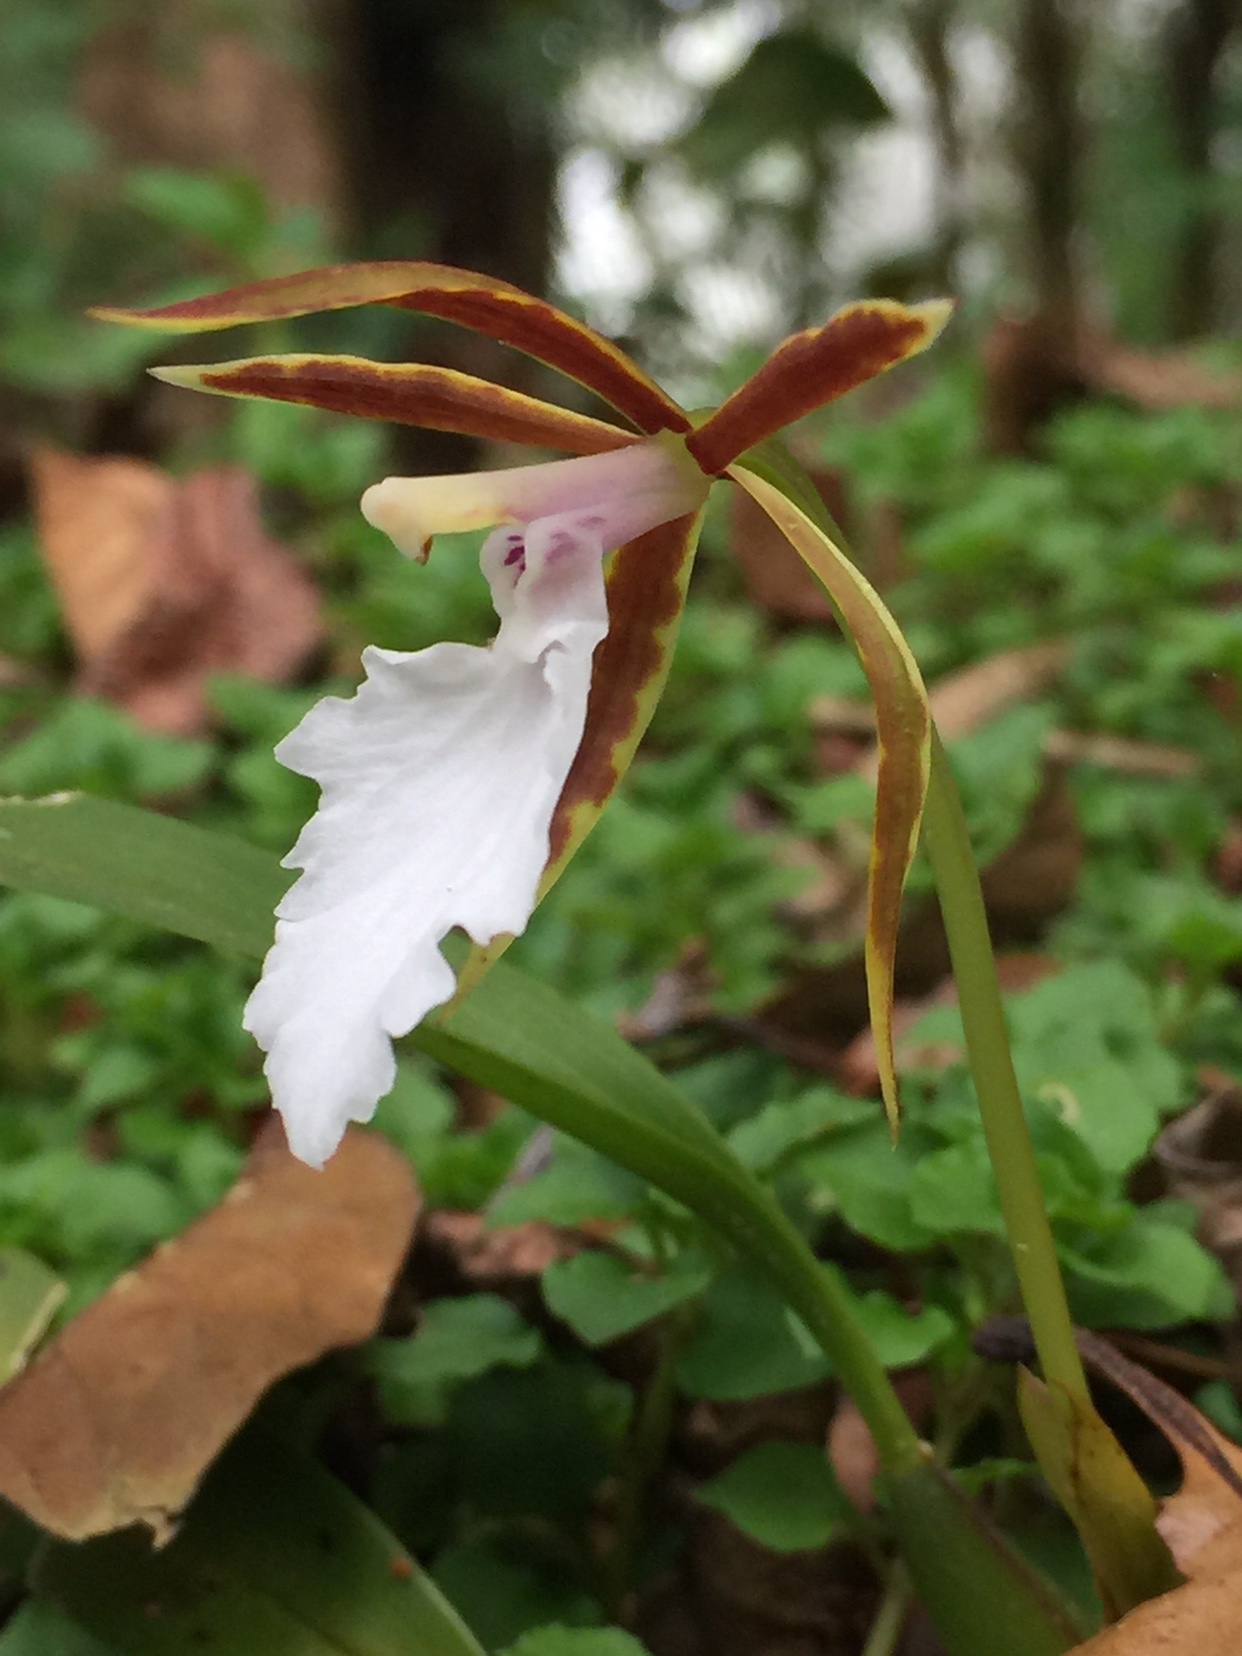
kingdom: Plantae
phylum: Tracheophyta
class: Liliopsida
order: Asparagales
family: Orchidaceae
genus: Rhynchostele
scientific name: Rhynchostele stellata
